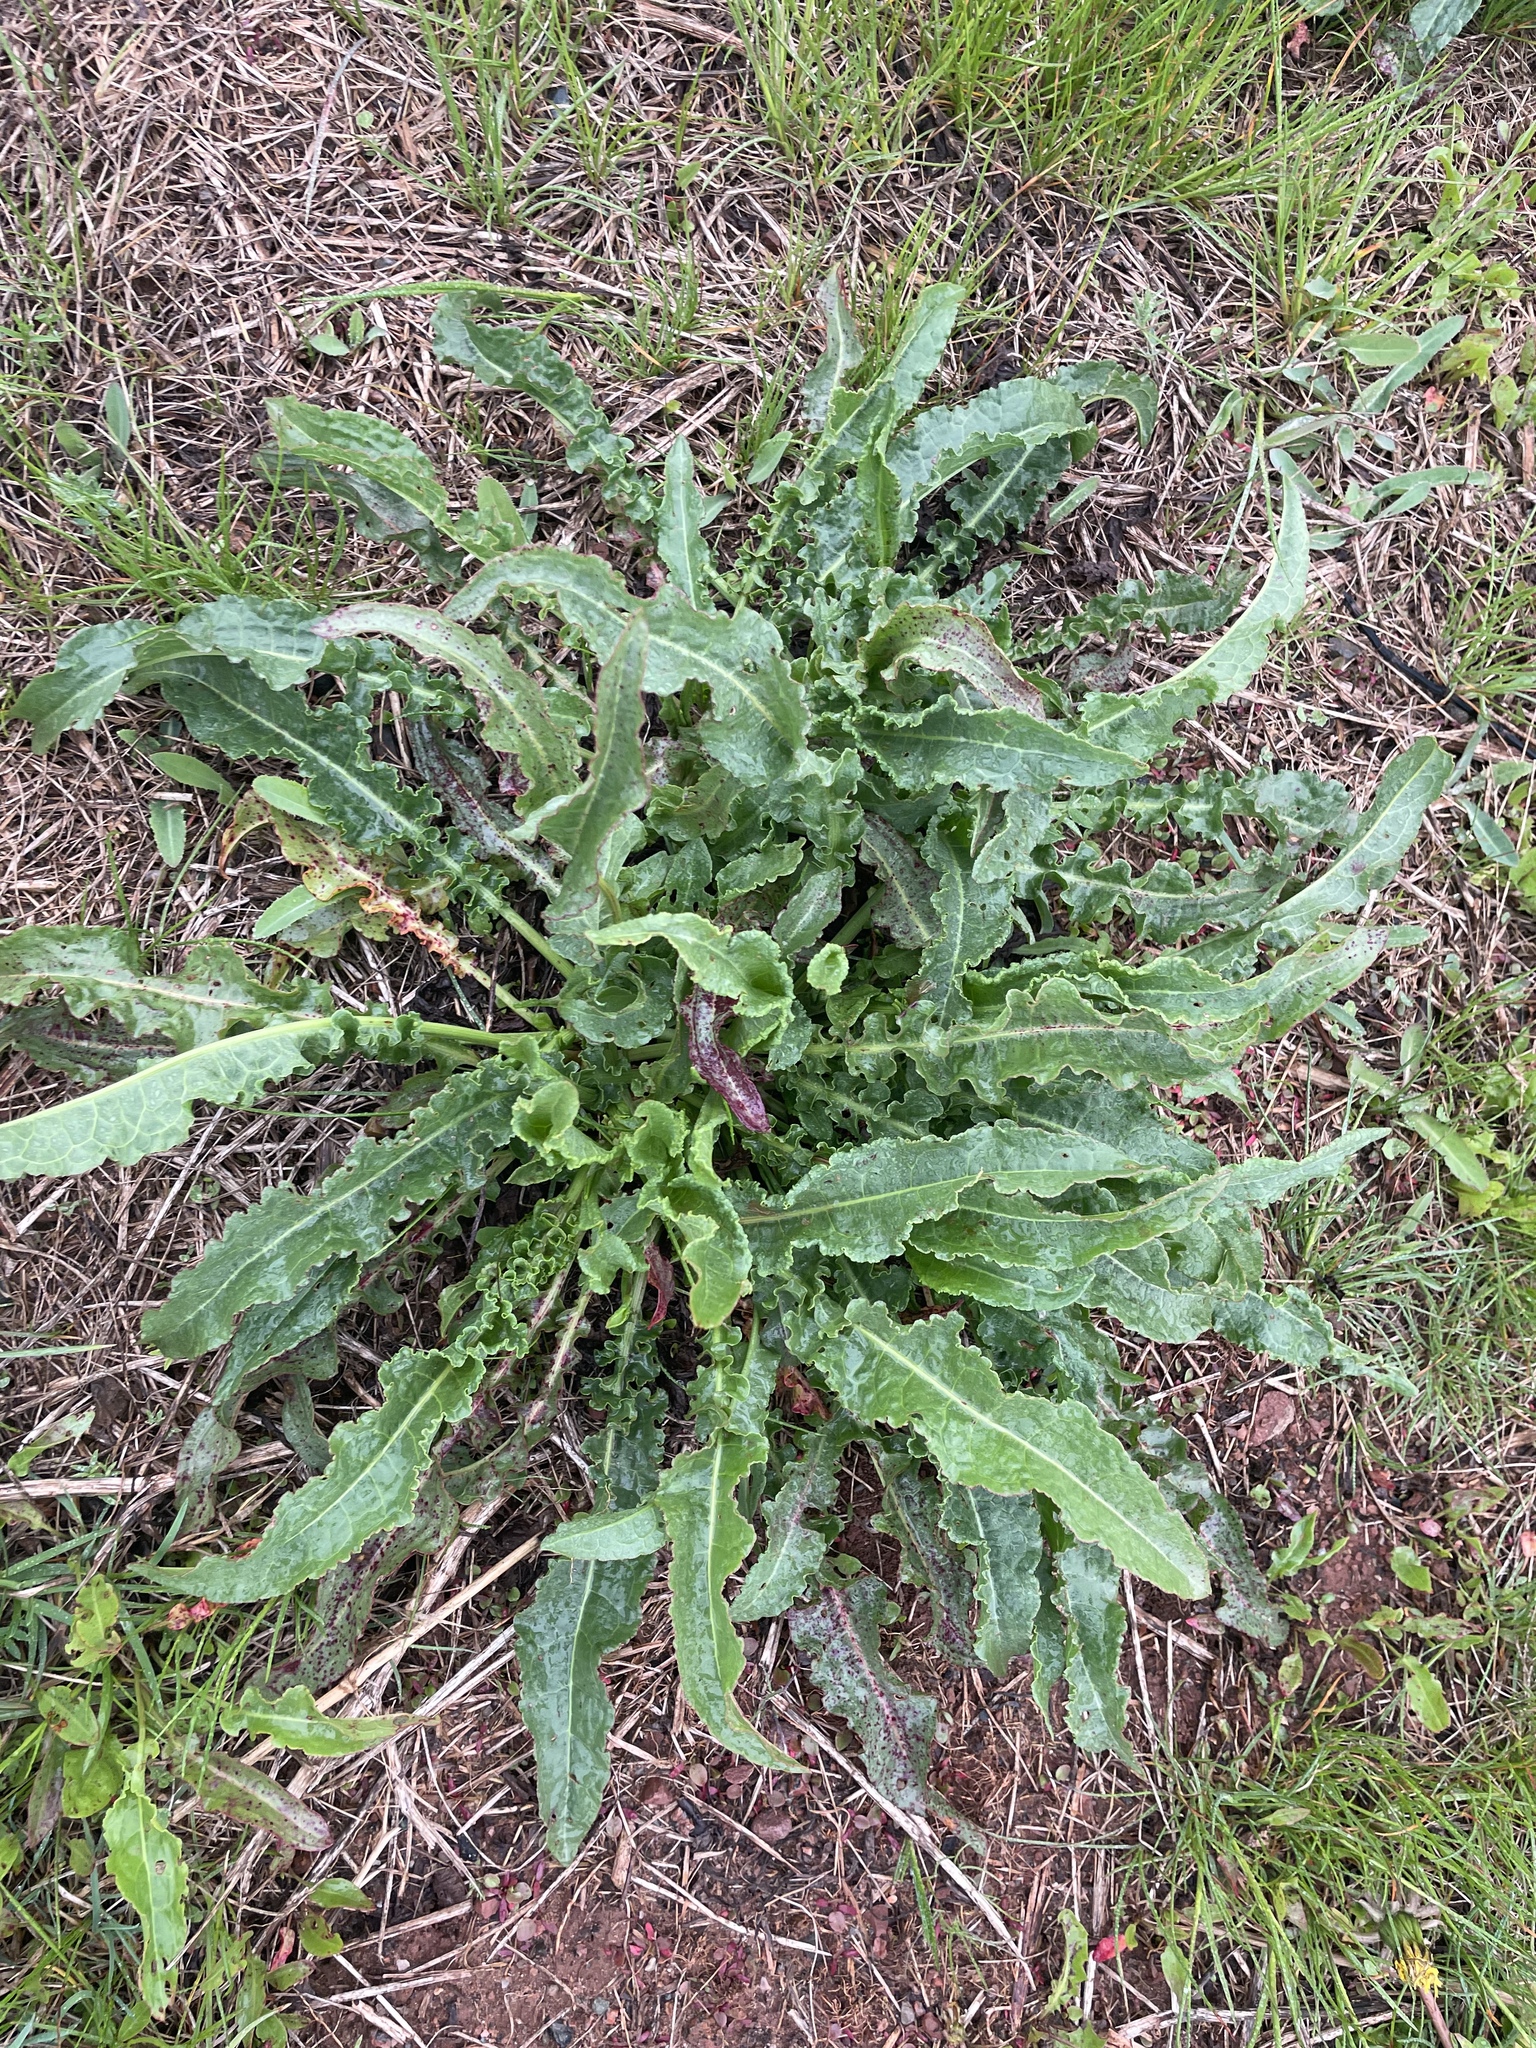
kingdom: Plantae
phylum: Tracheophyta
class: Magnoliopsida
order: Caryophyllales
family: Polygonaceae
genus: Rumex
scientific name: Rumex crispus
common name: Curled dock
